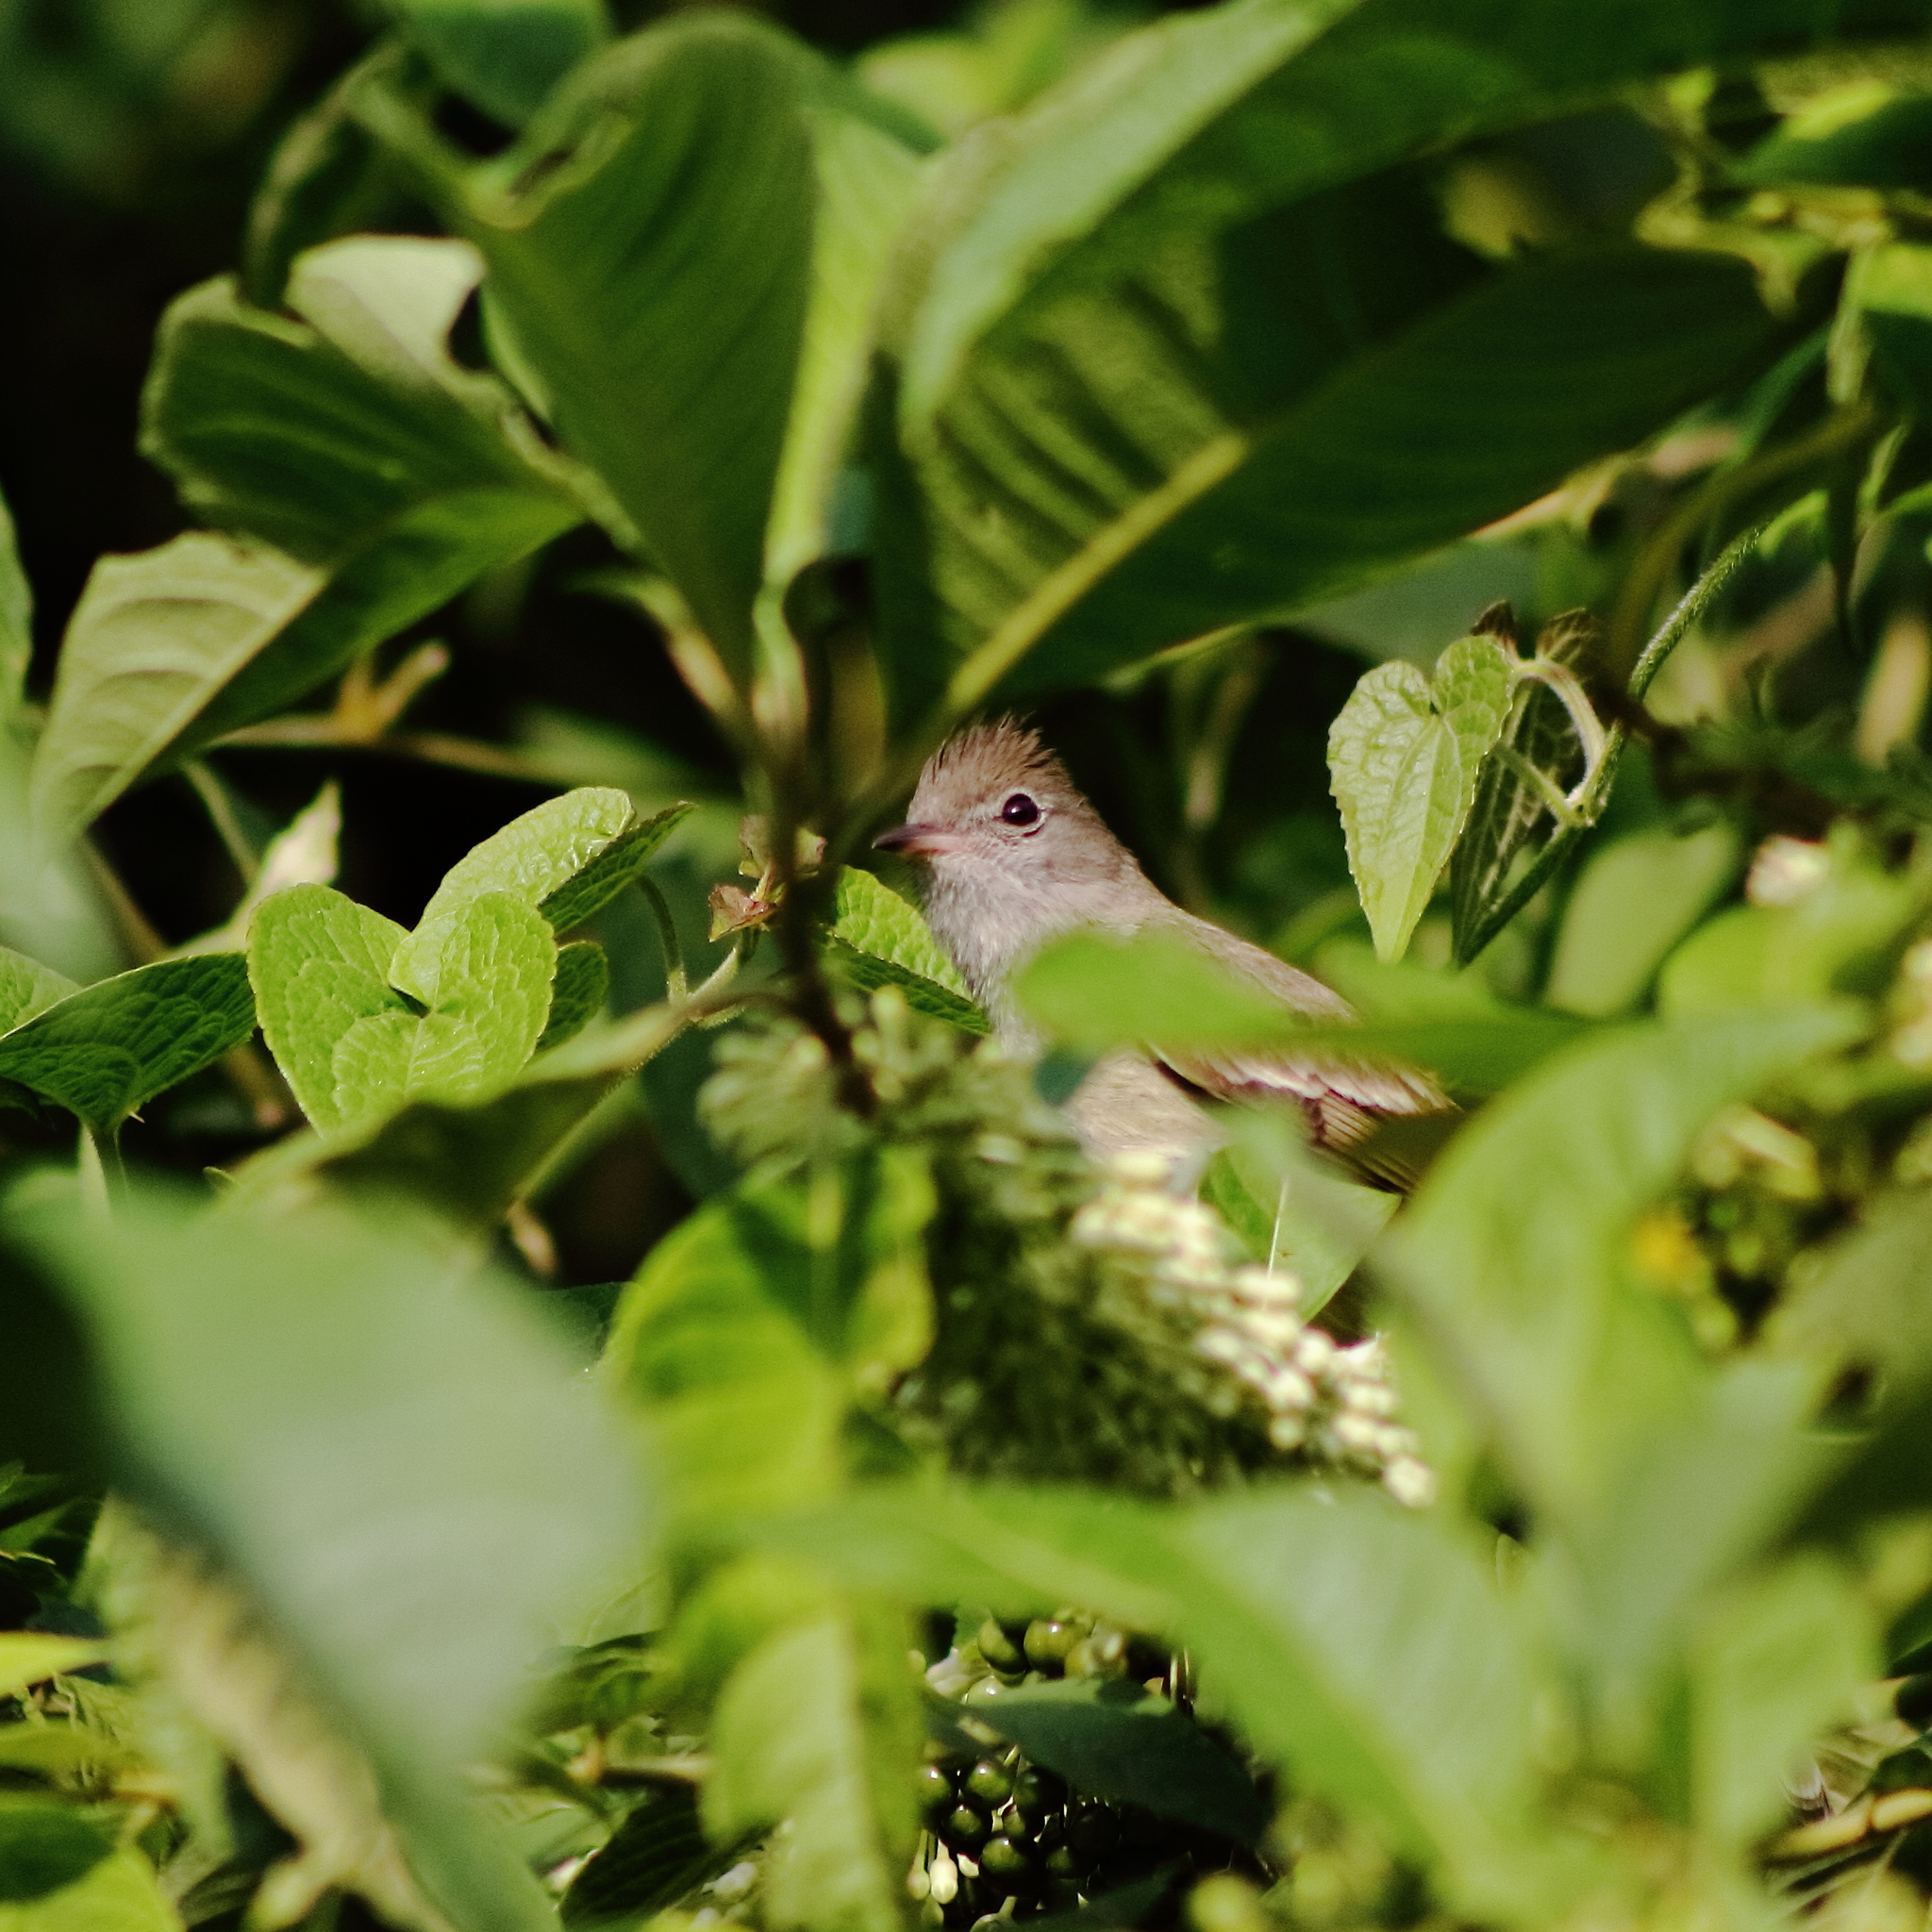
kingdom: Animalia
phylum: Chordata
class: Aves
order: Passeriformes
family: Tyrannidae
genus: Elaenia
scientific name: Elaenia flavogaster
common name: Yellow-bellied elaenia
